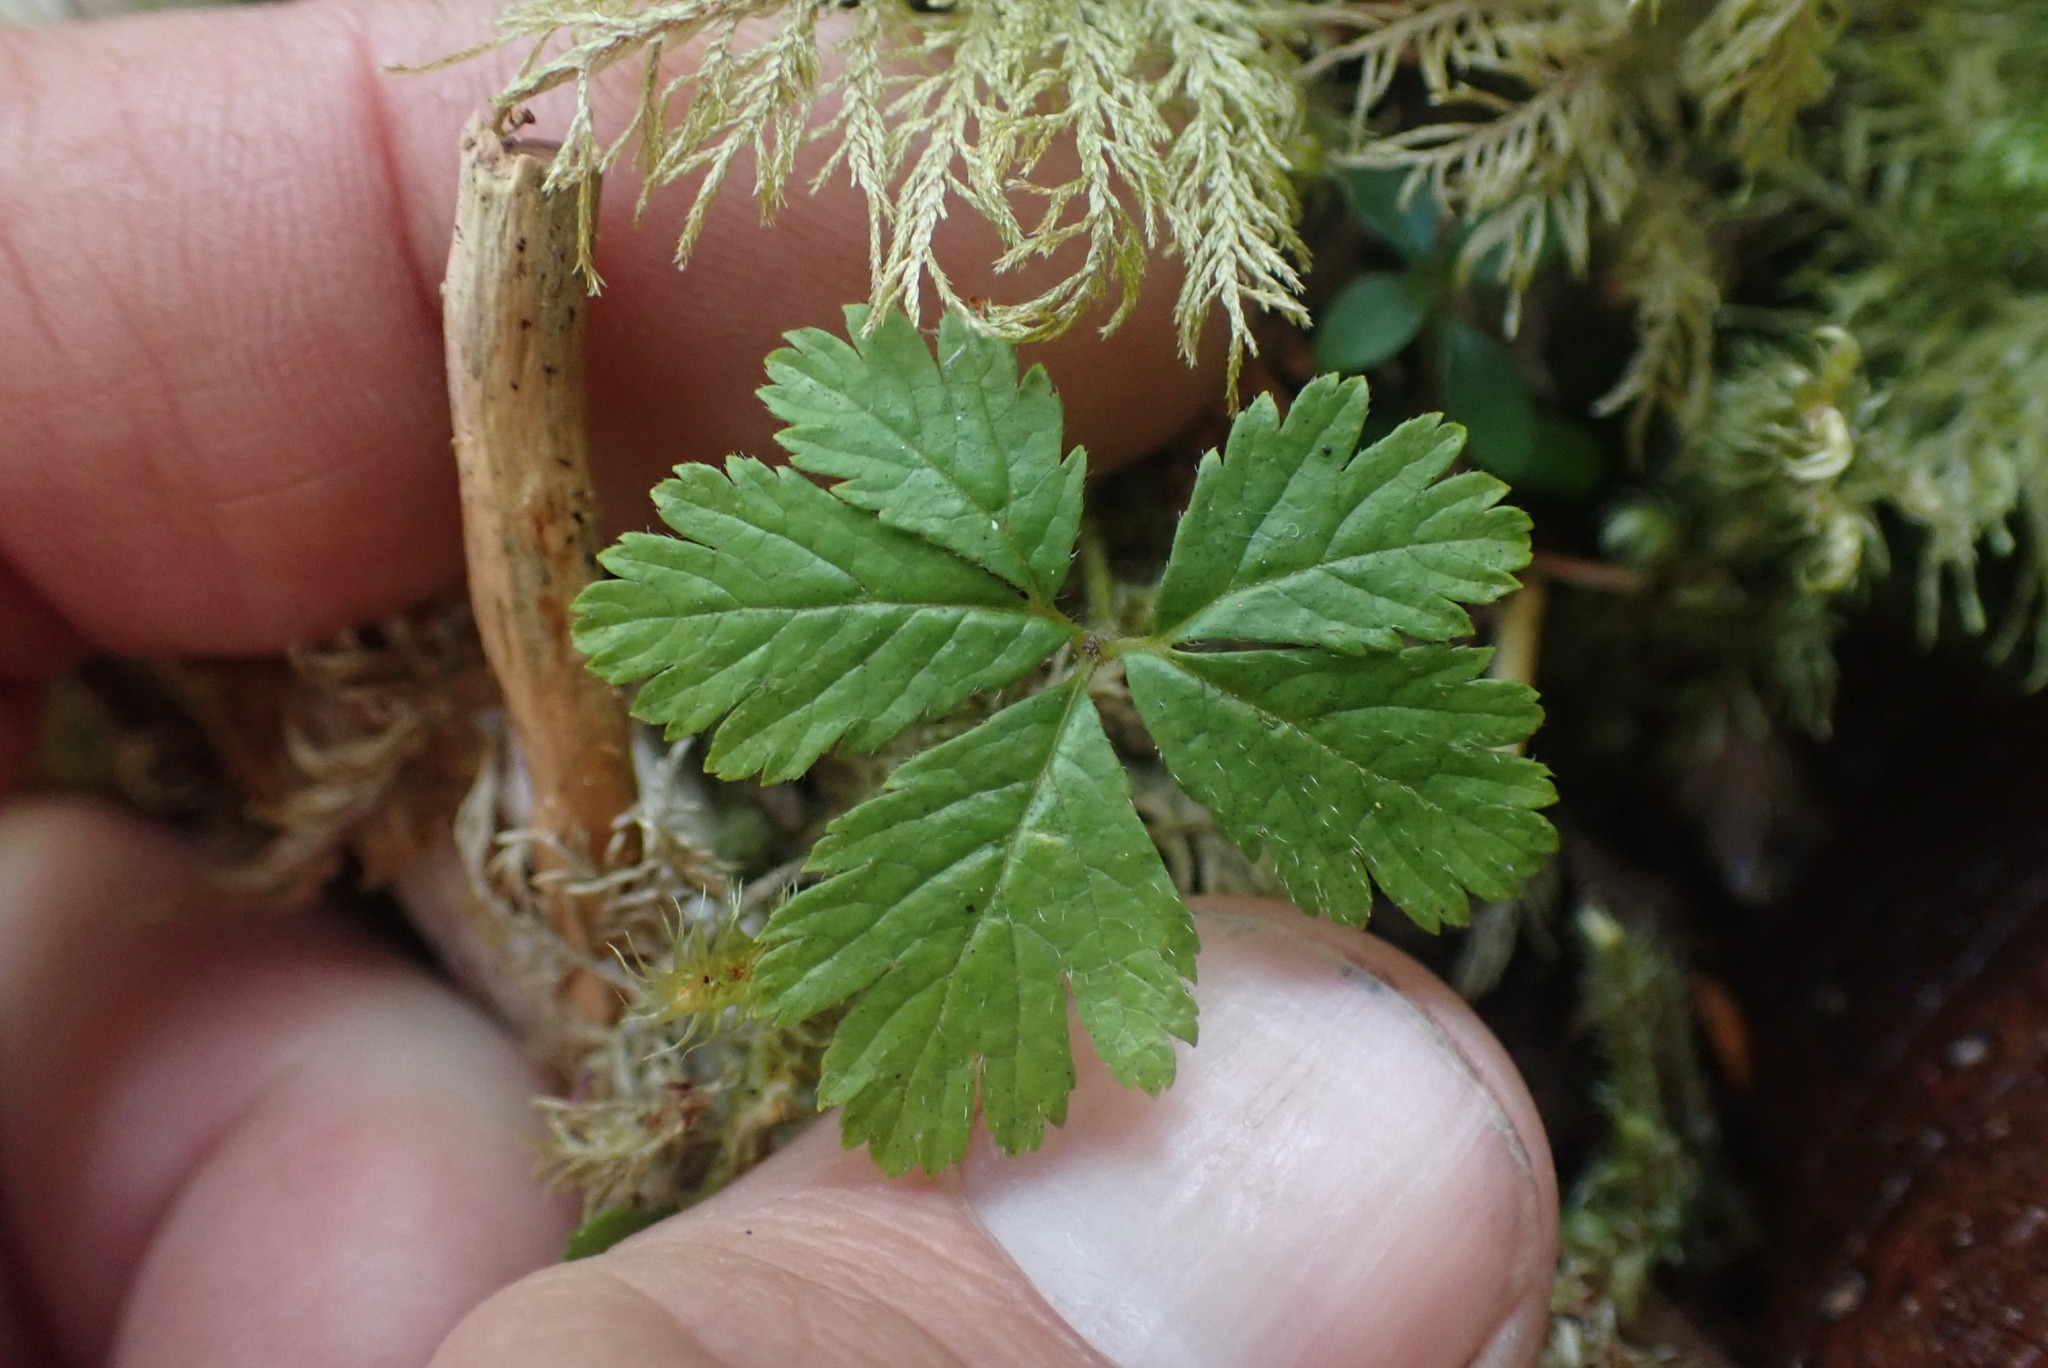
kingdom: Plantae
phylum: Tracheophyta
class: Magnoliopsida
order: Rosales
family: Rosaceae
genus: Rubus
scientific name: Rubus pedatus
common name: Creeping raspberry
